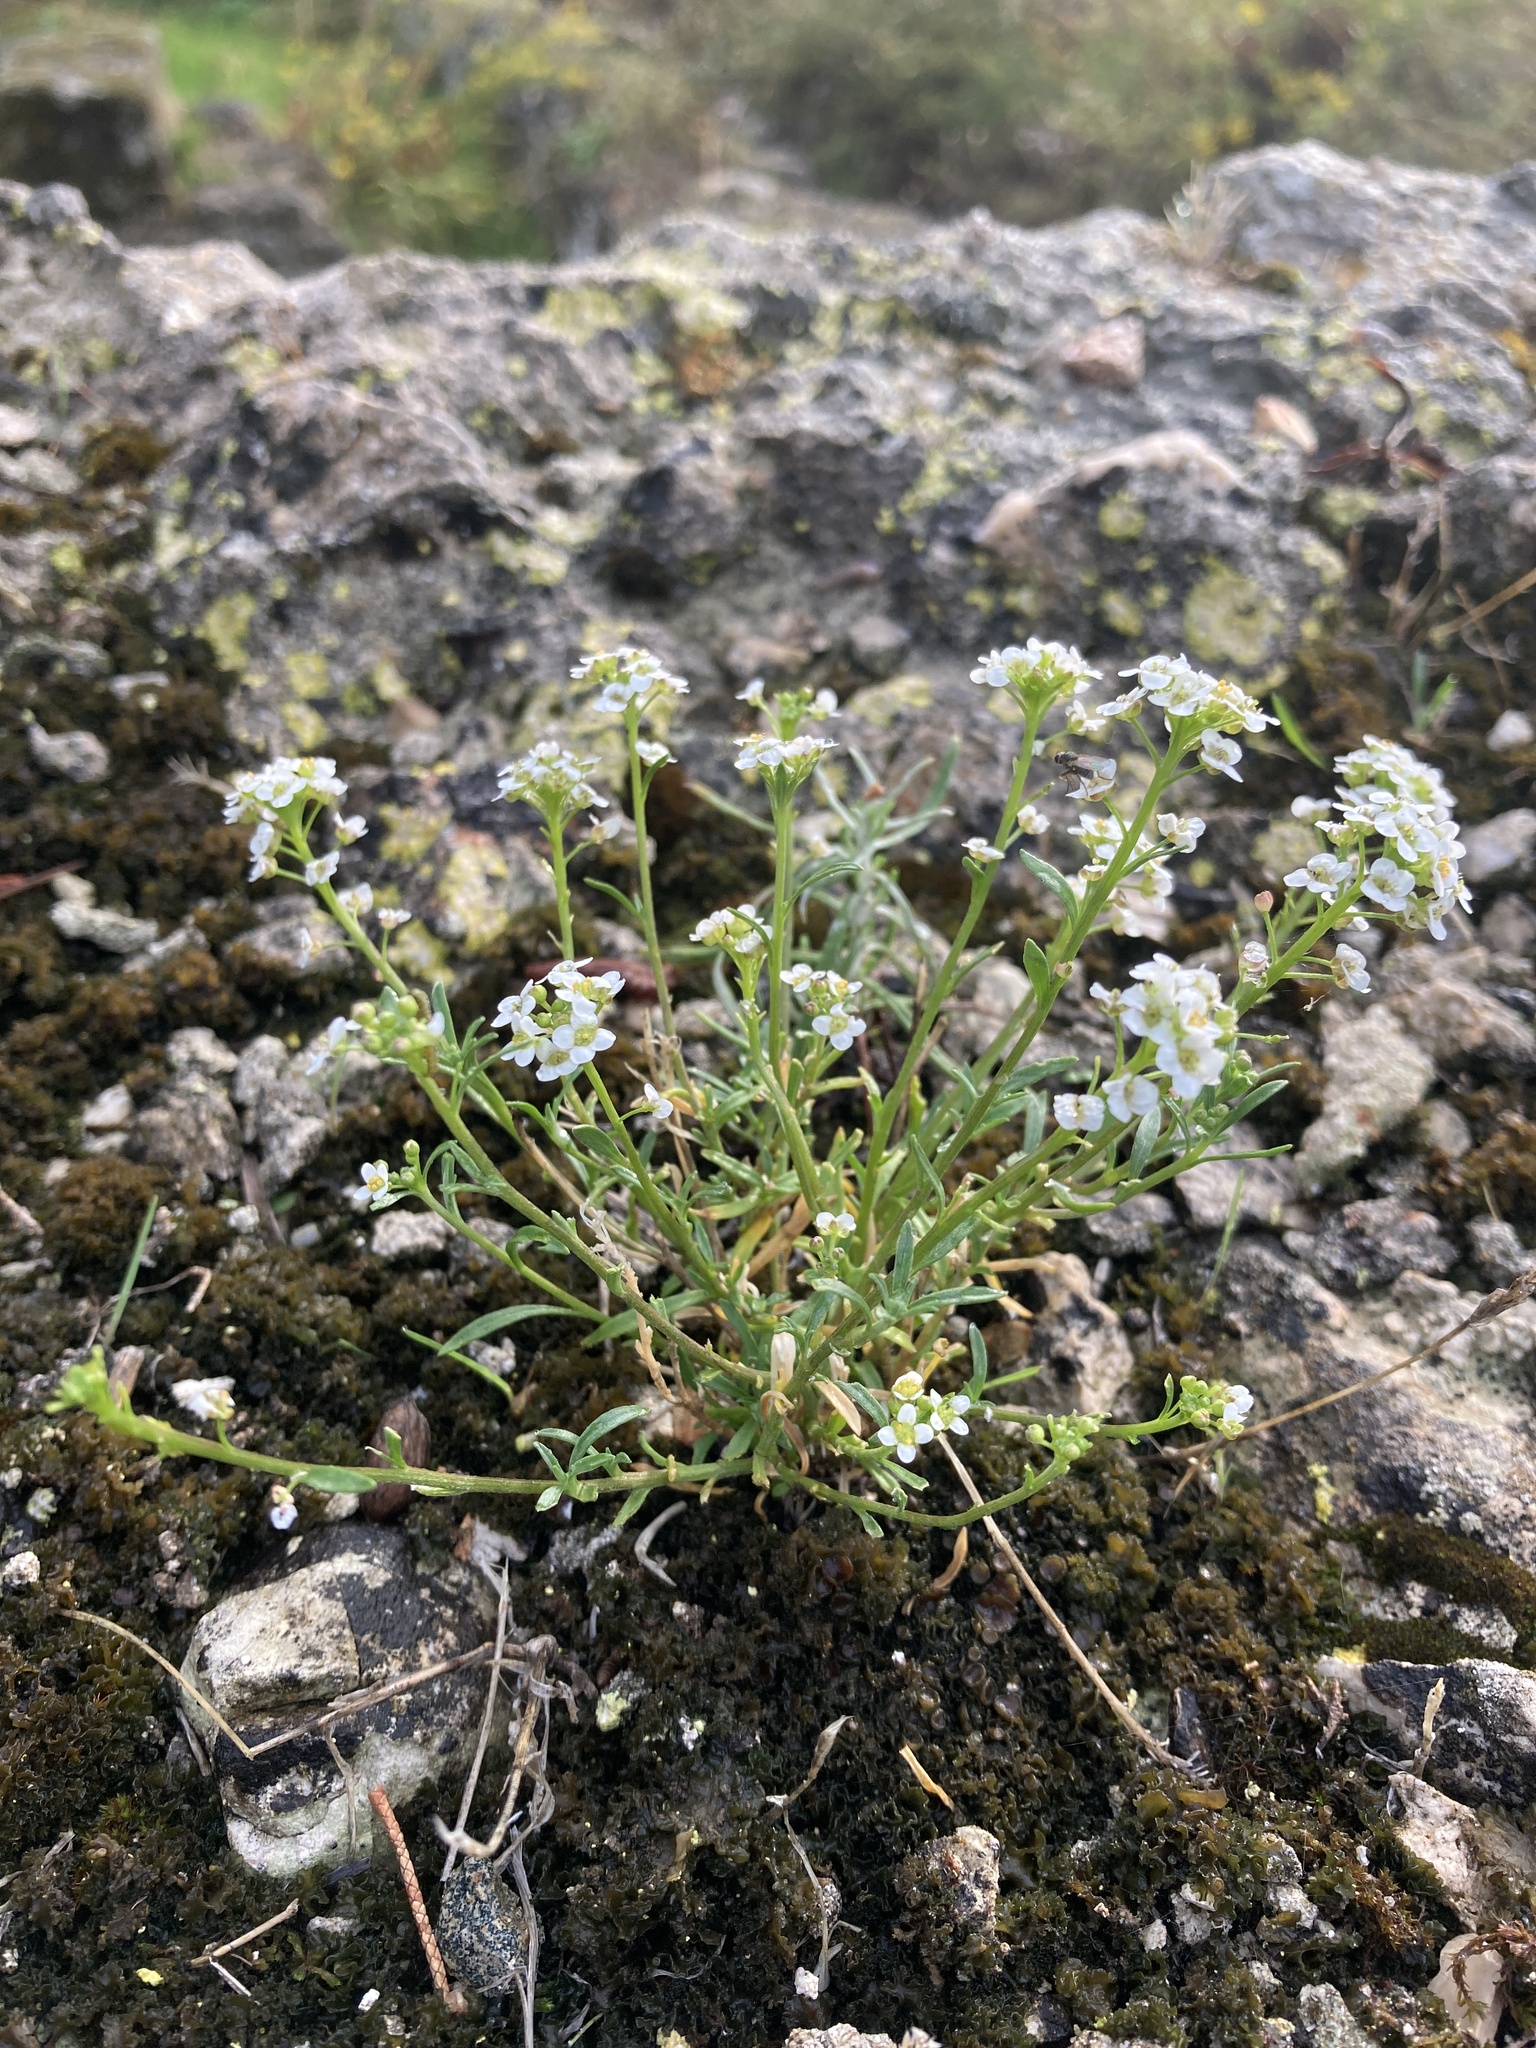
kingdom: Plantae
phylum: Tracheophyta
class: Magnoliopsida
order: Brassicales
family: Brassicaceae
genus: Lobularia
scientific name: Lobularia maritima
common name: Sweet alison
